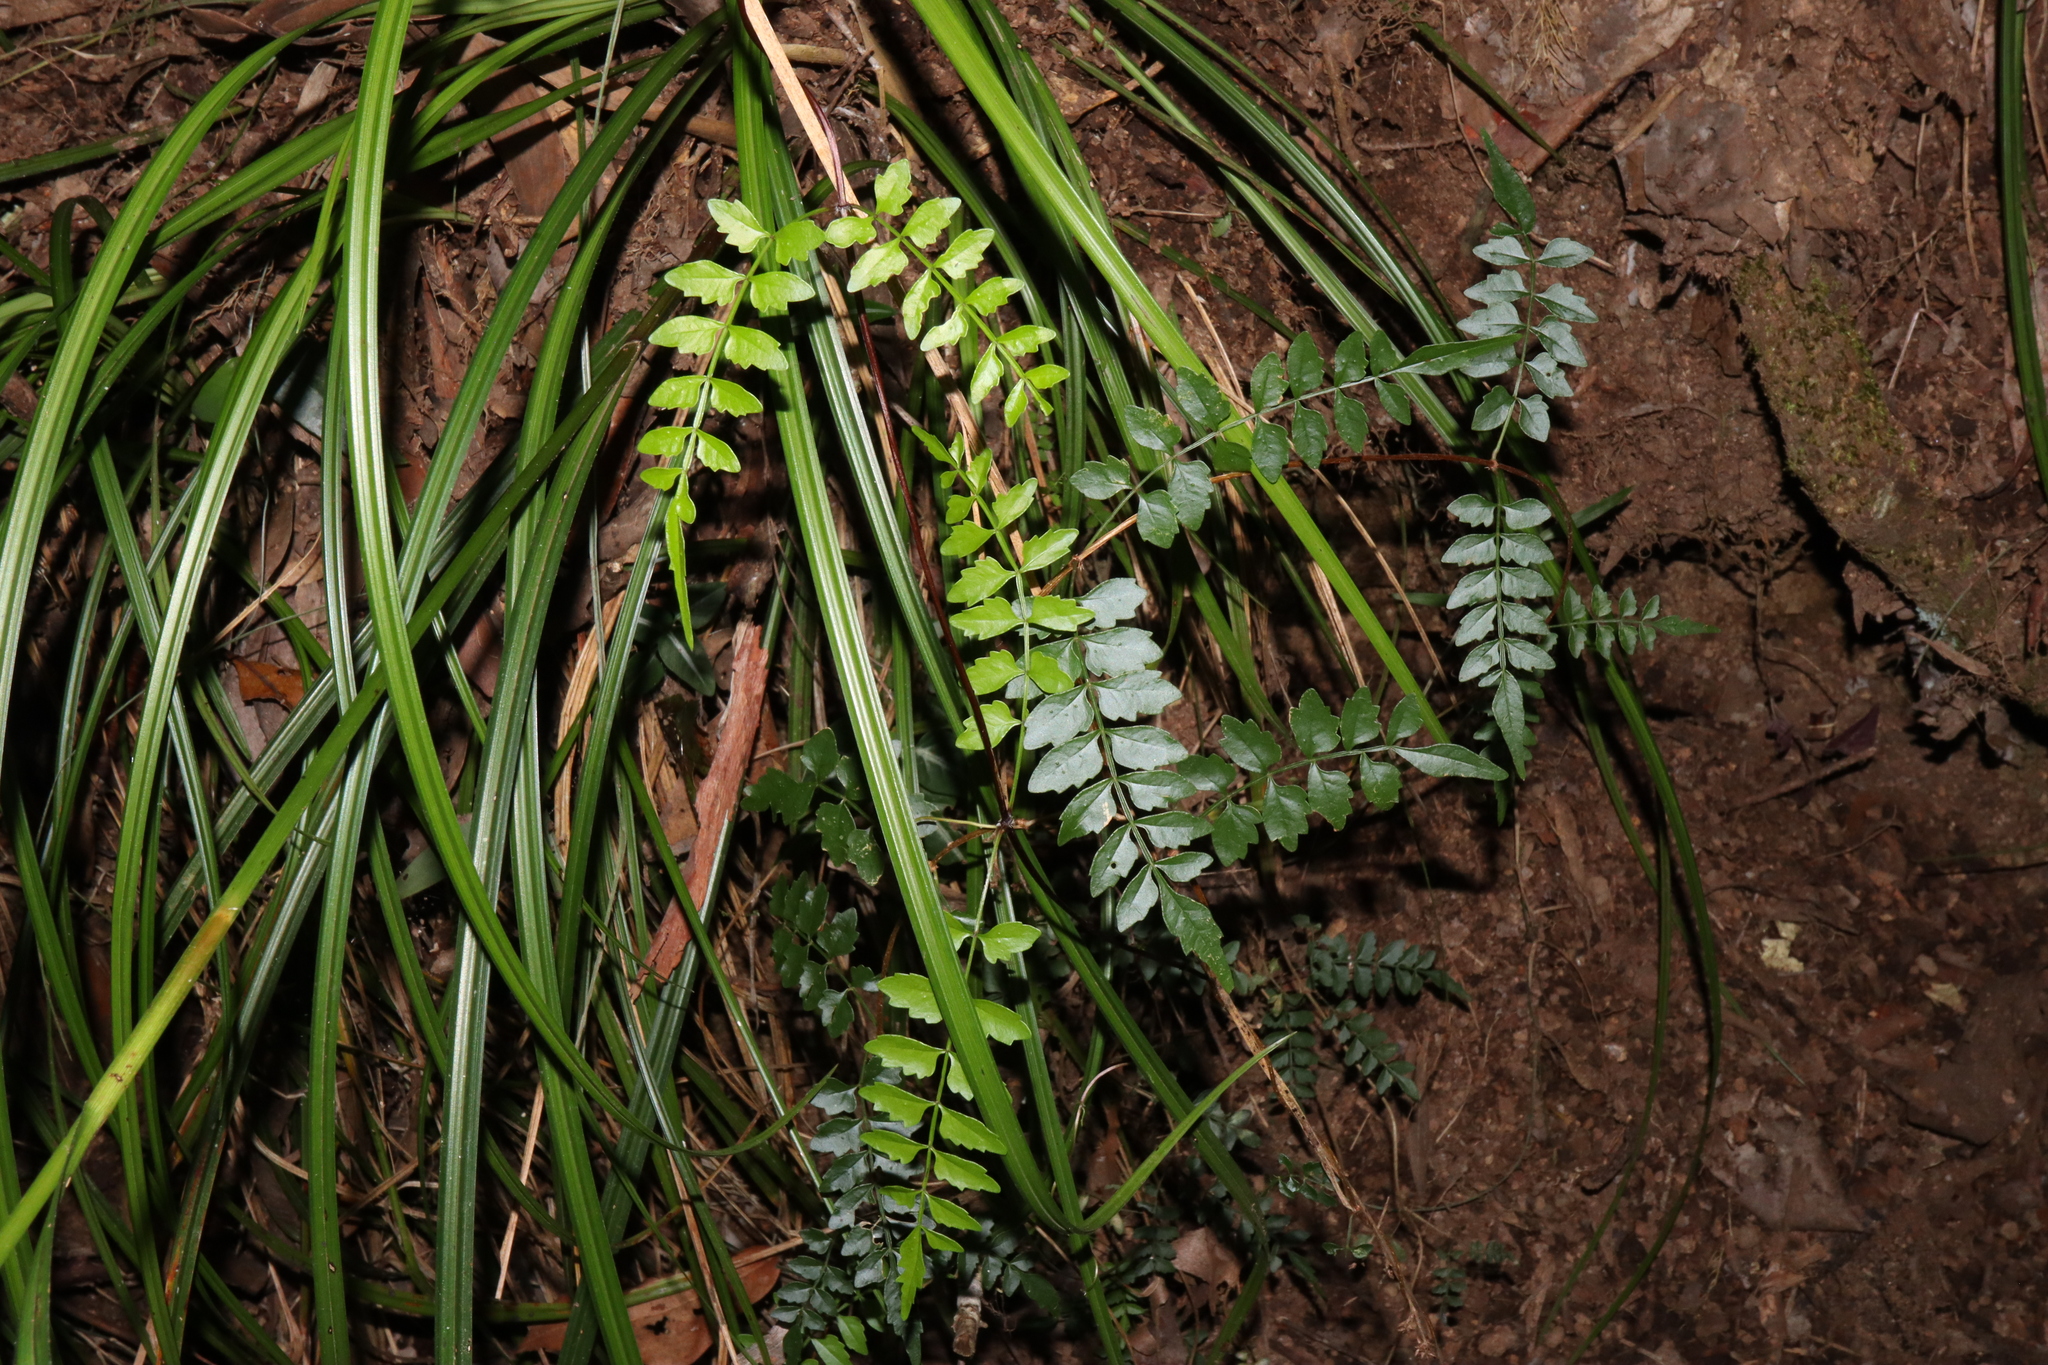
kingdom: Plantae
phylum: Tracheophyta
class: Magnoliopsida
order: Lamiales
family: Bignoniaceae
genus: Pandorea
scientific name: Pandorea pandorana
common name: Wonga-wonga-vine
